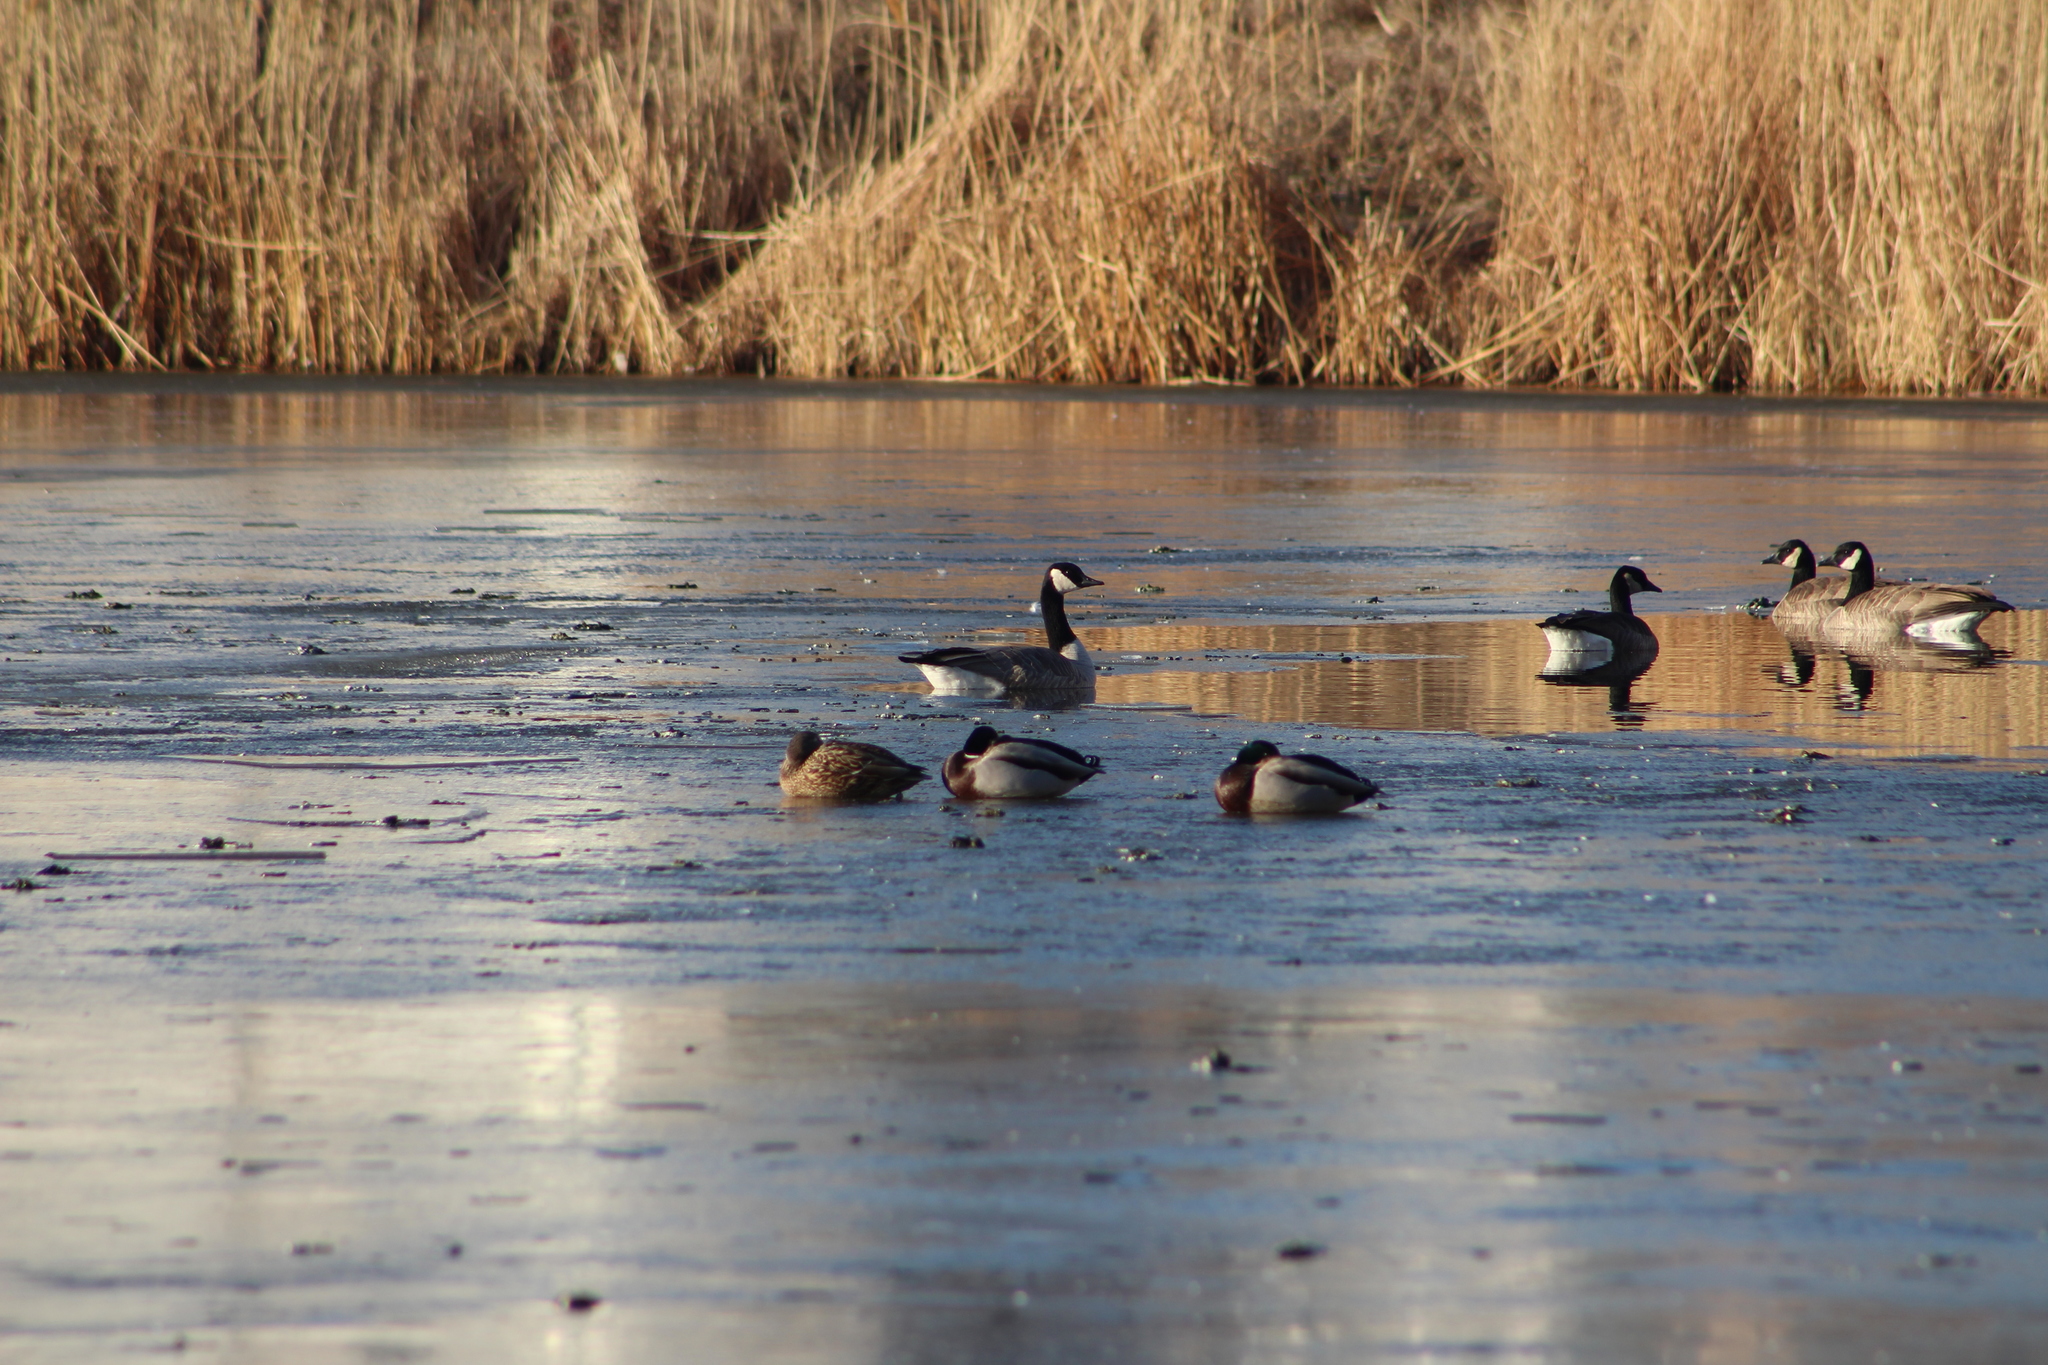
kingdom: Animalia
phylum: Chordata
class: Aves
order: Anseriformes
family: Anatidae
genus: Anas
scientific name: Anas platyrhynchos
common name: Mallard
